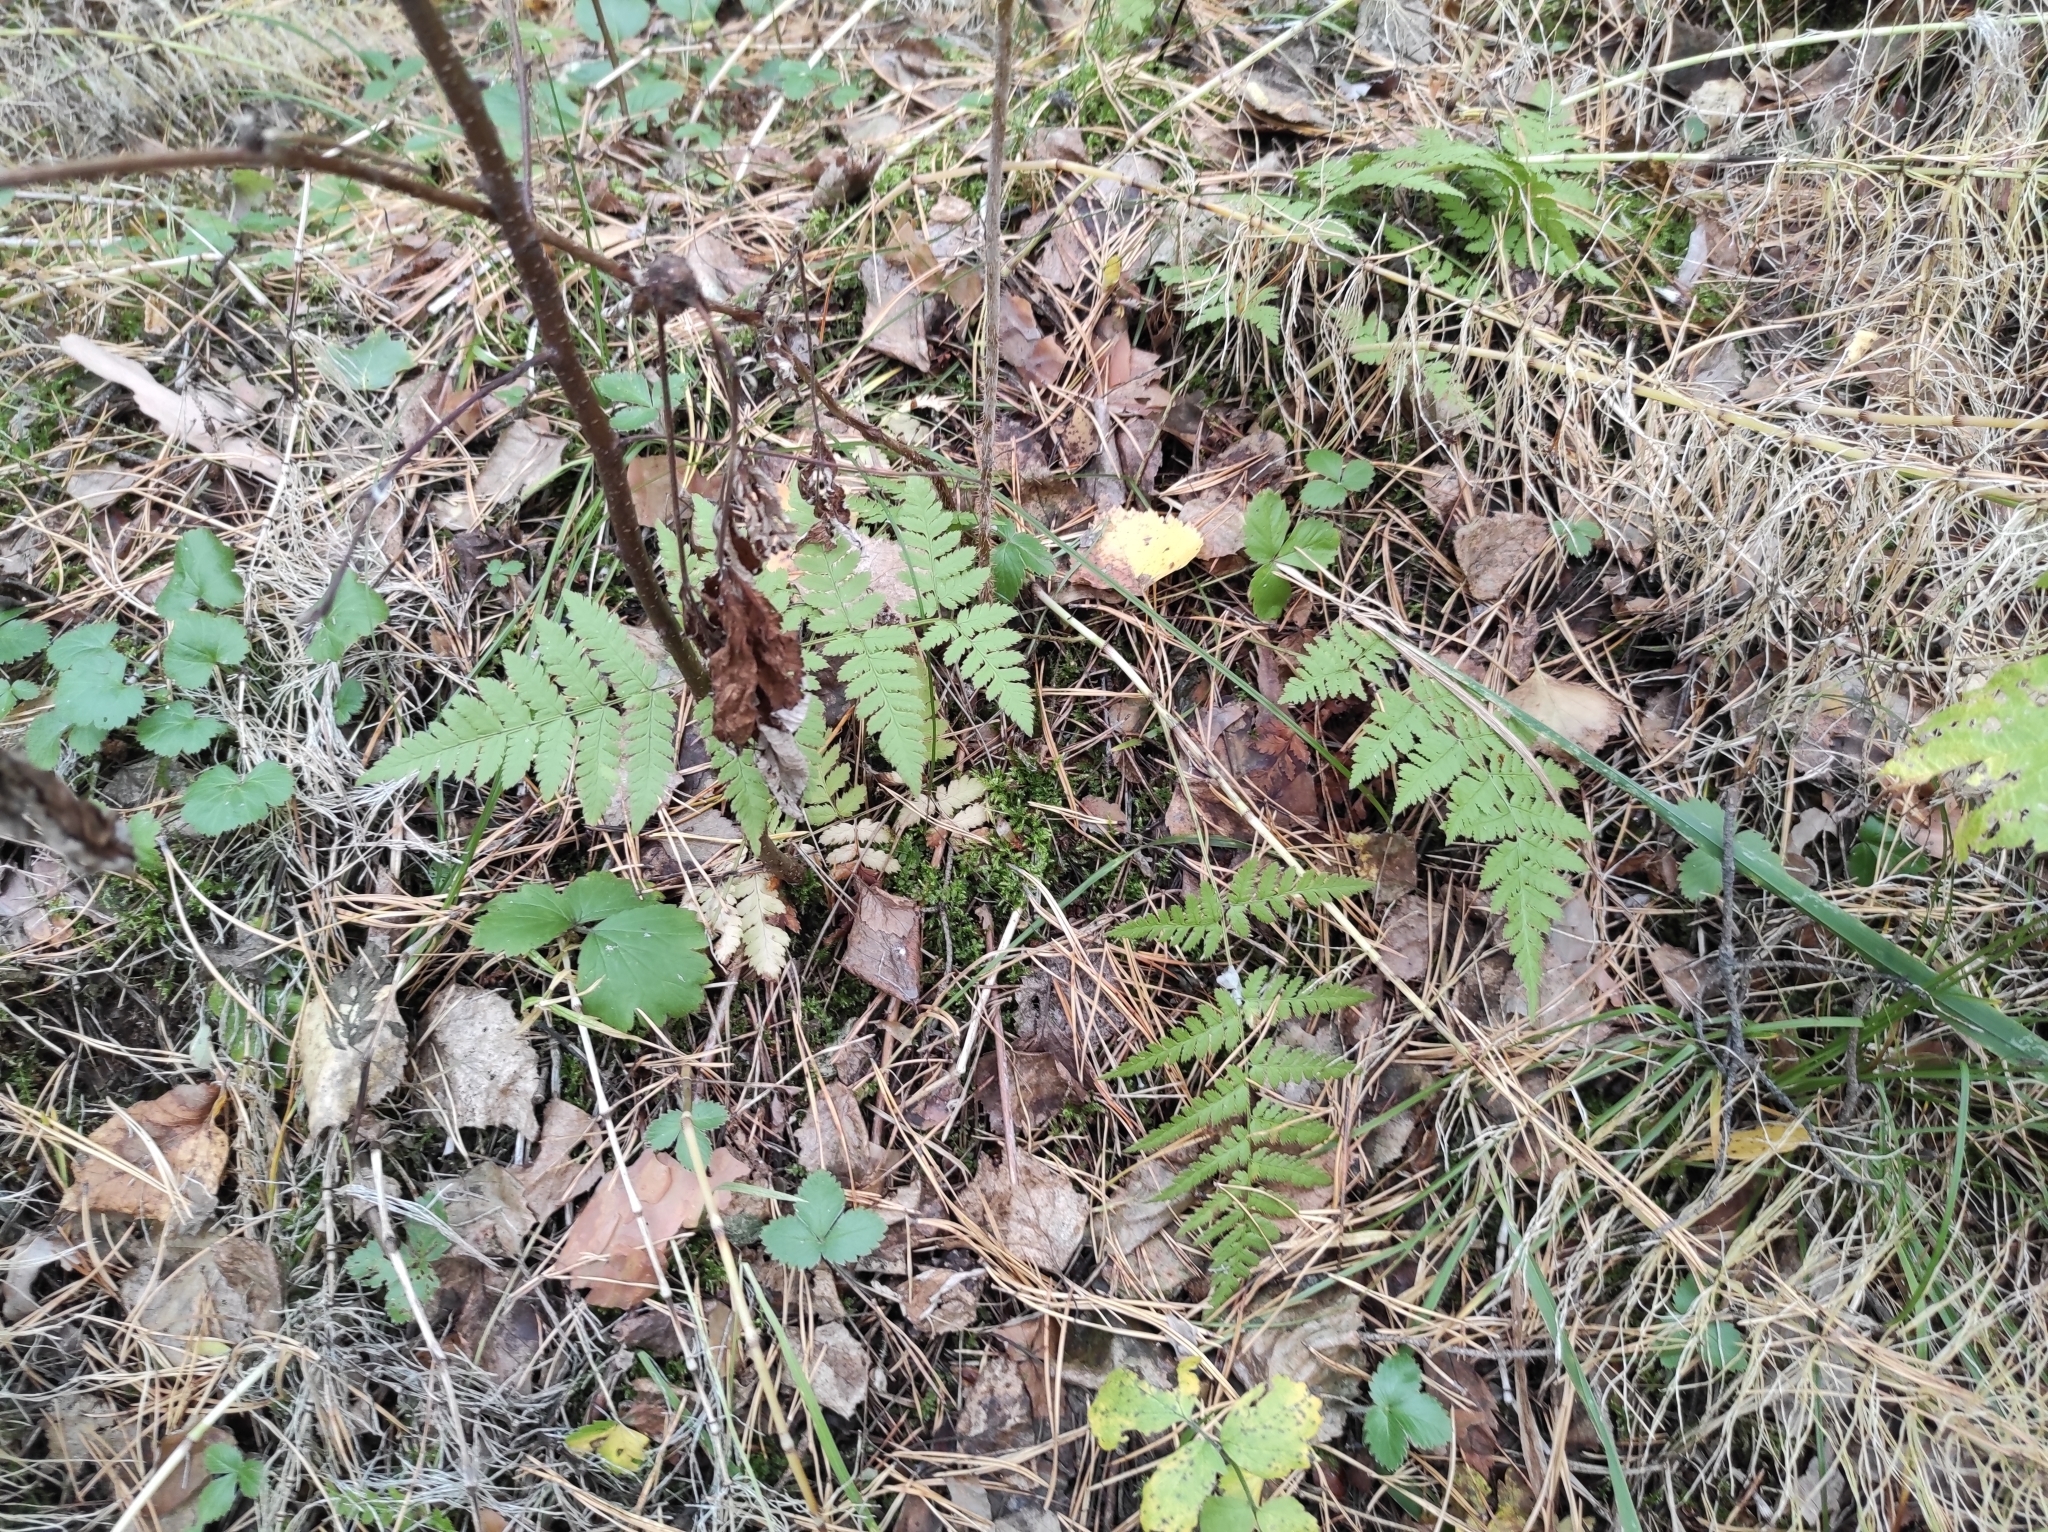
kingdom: Plantae
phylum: Tracheophyta
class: Polypodiopsida
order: Polypodiales
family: Dryopteridaceae
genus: Dryopteris
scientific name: Dryopteris carthusiana
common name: Narrow buckler-fern
